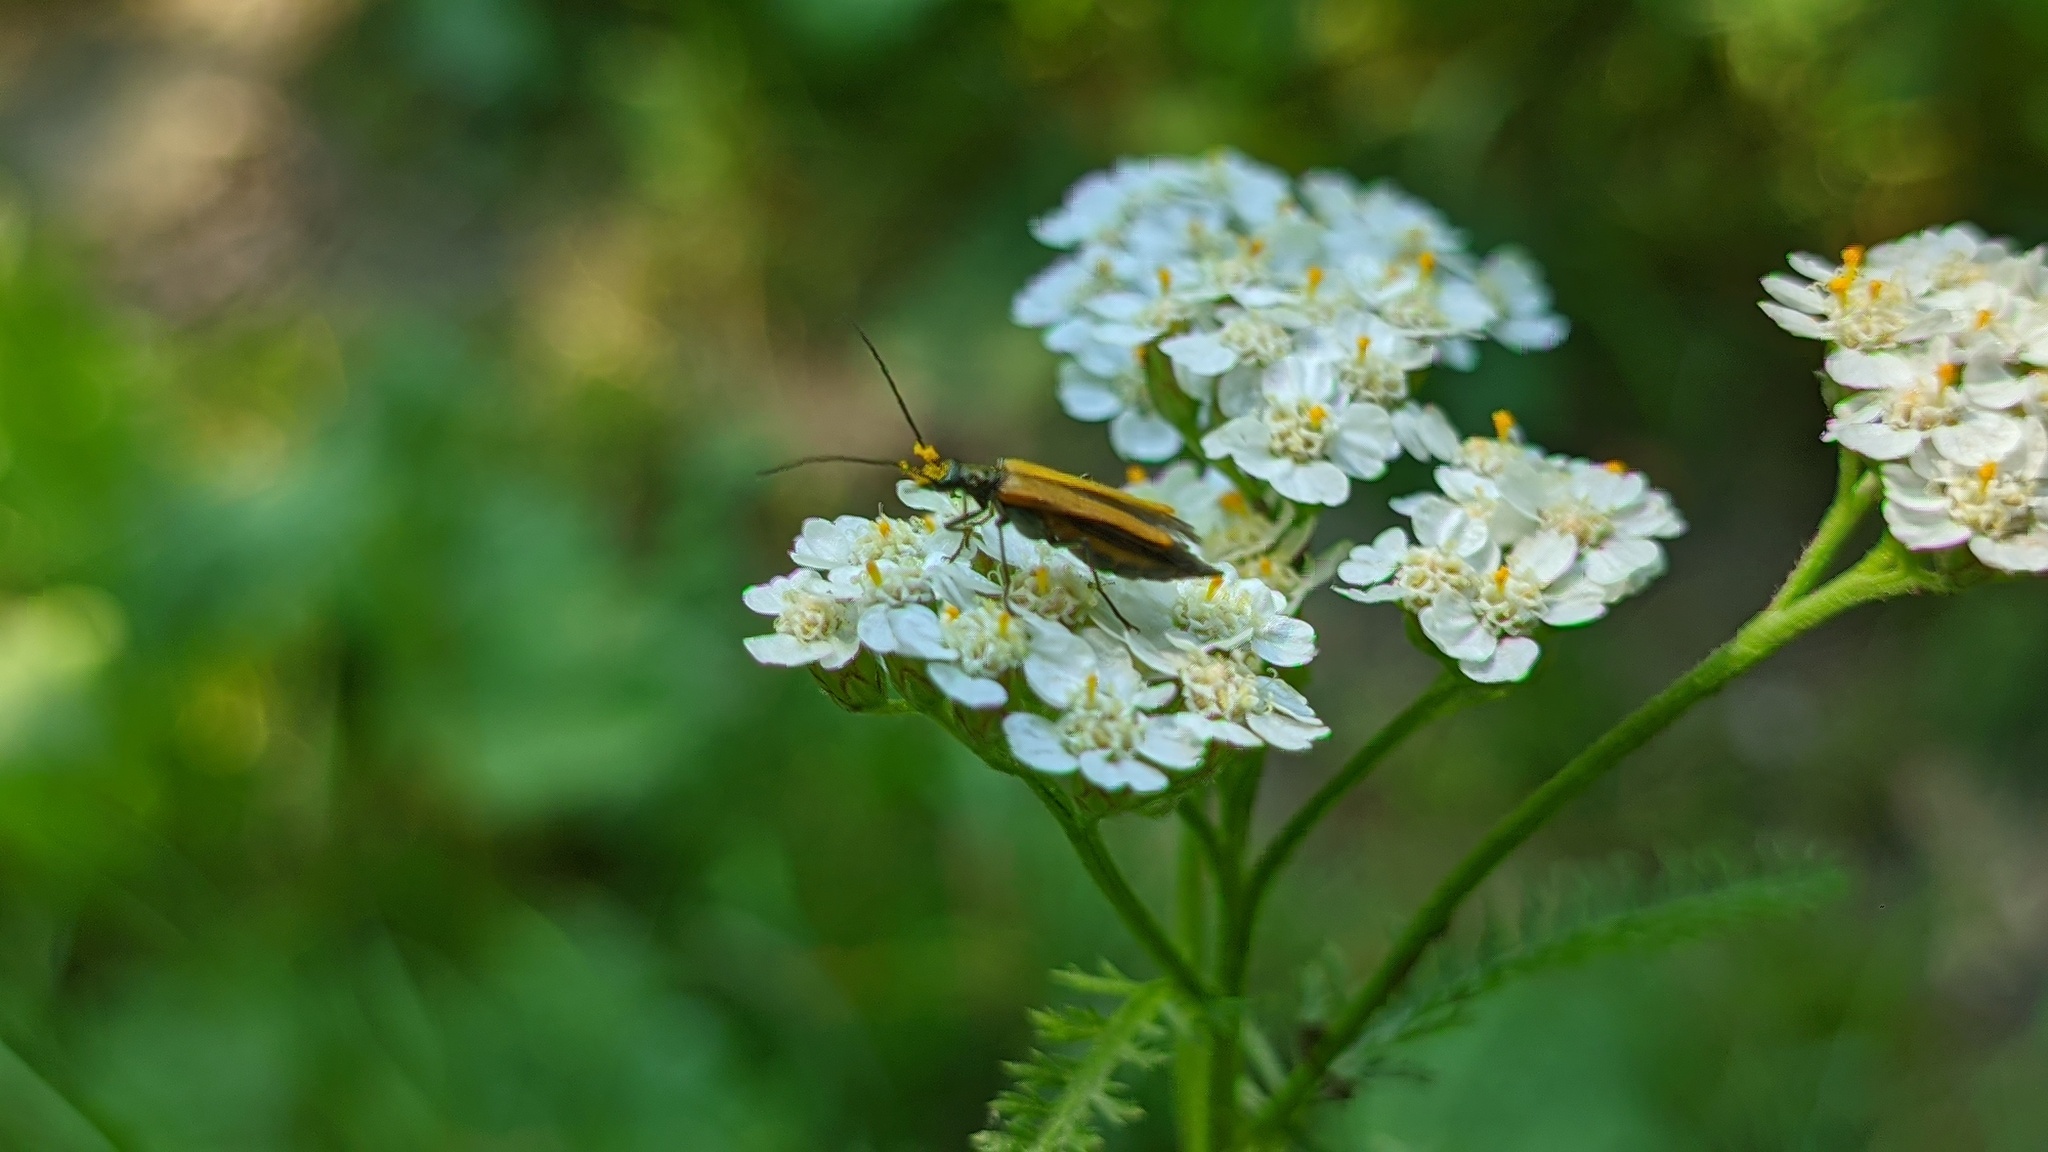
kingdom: Animalia
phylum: Arthropoda
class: Insecta
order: Coleoptera
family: Oedemeridae
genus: Oedemera
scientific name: Oedemera femorata
